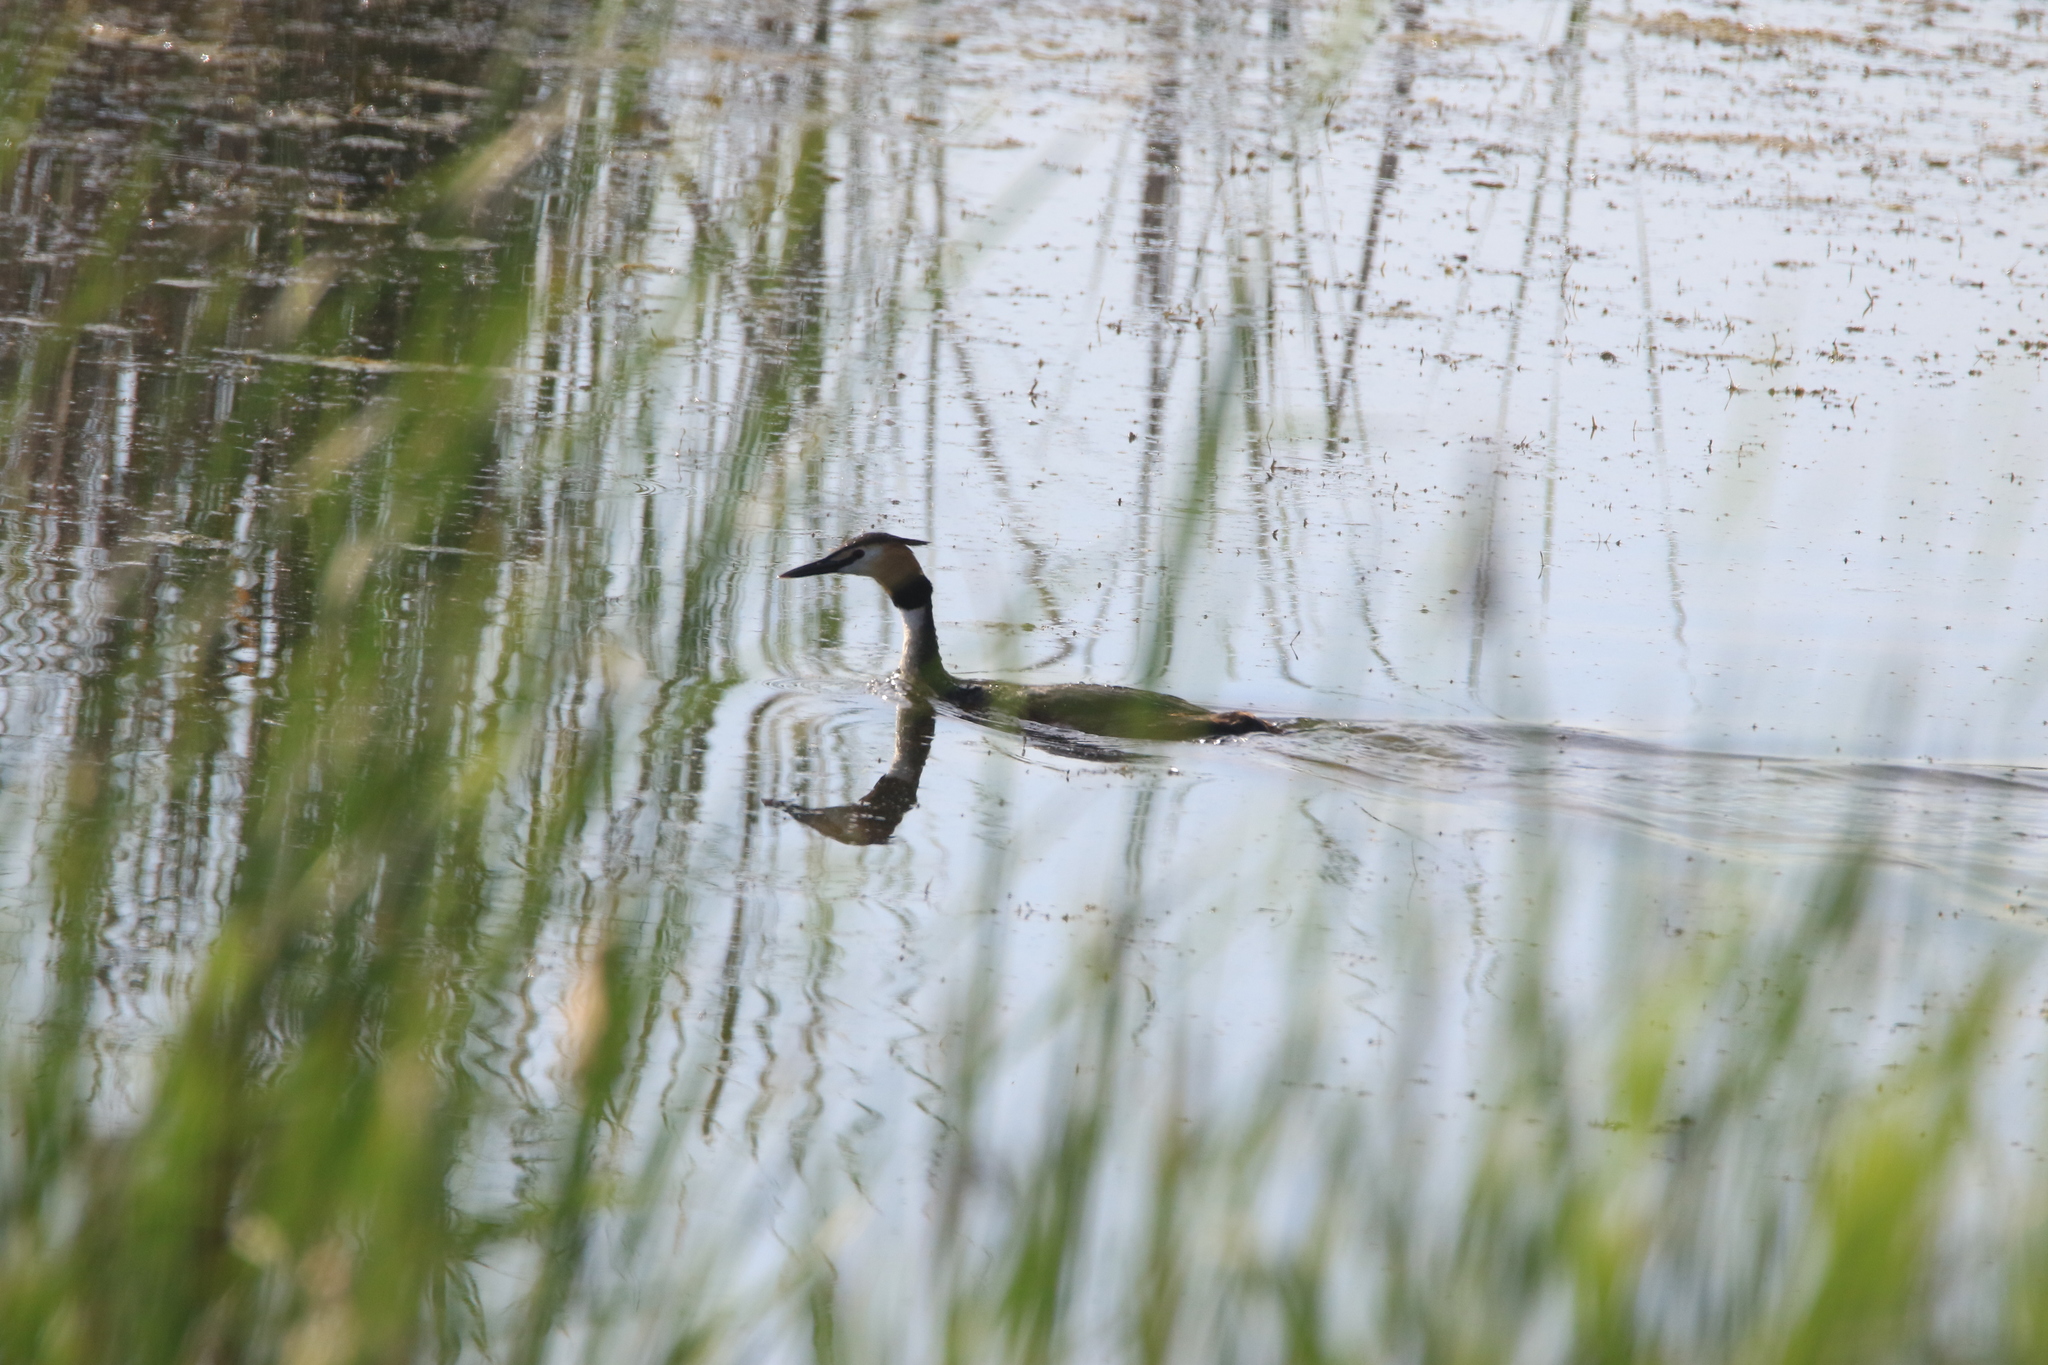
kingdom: Animalia
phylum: Chordata
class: Aves
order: Podicipediformes
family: Podicipedidae
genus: Podiceps
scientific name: Podiceps cristatus
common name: Great crested grebe
